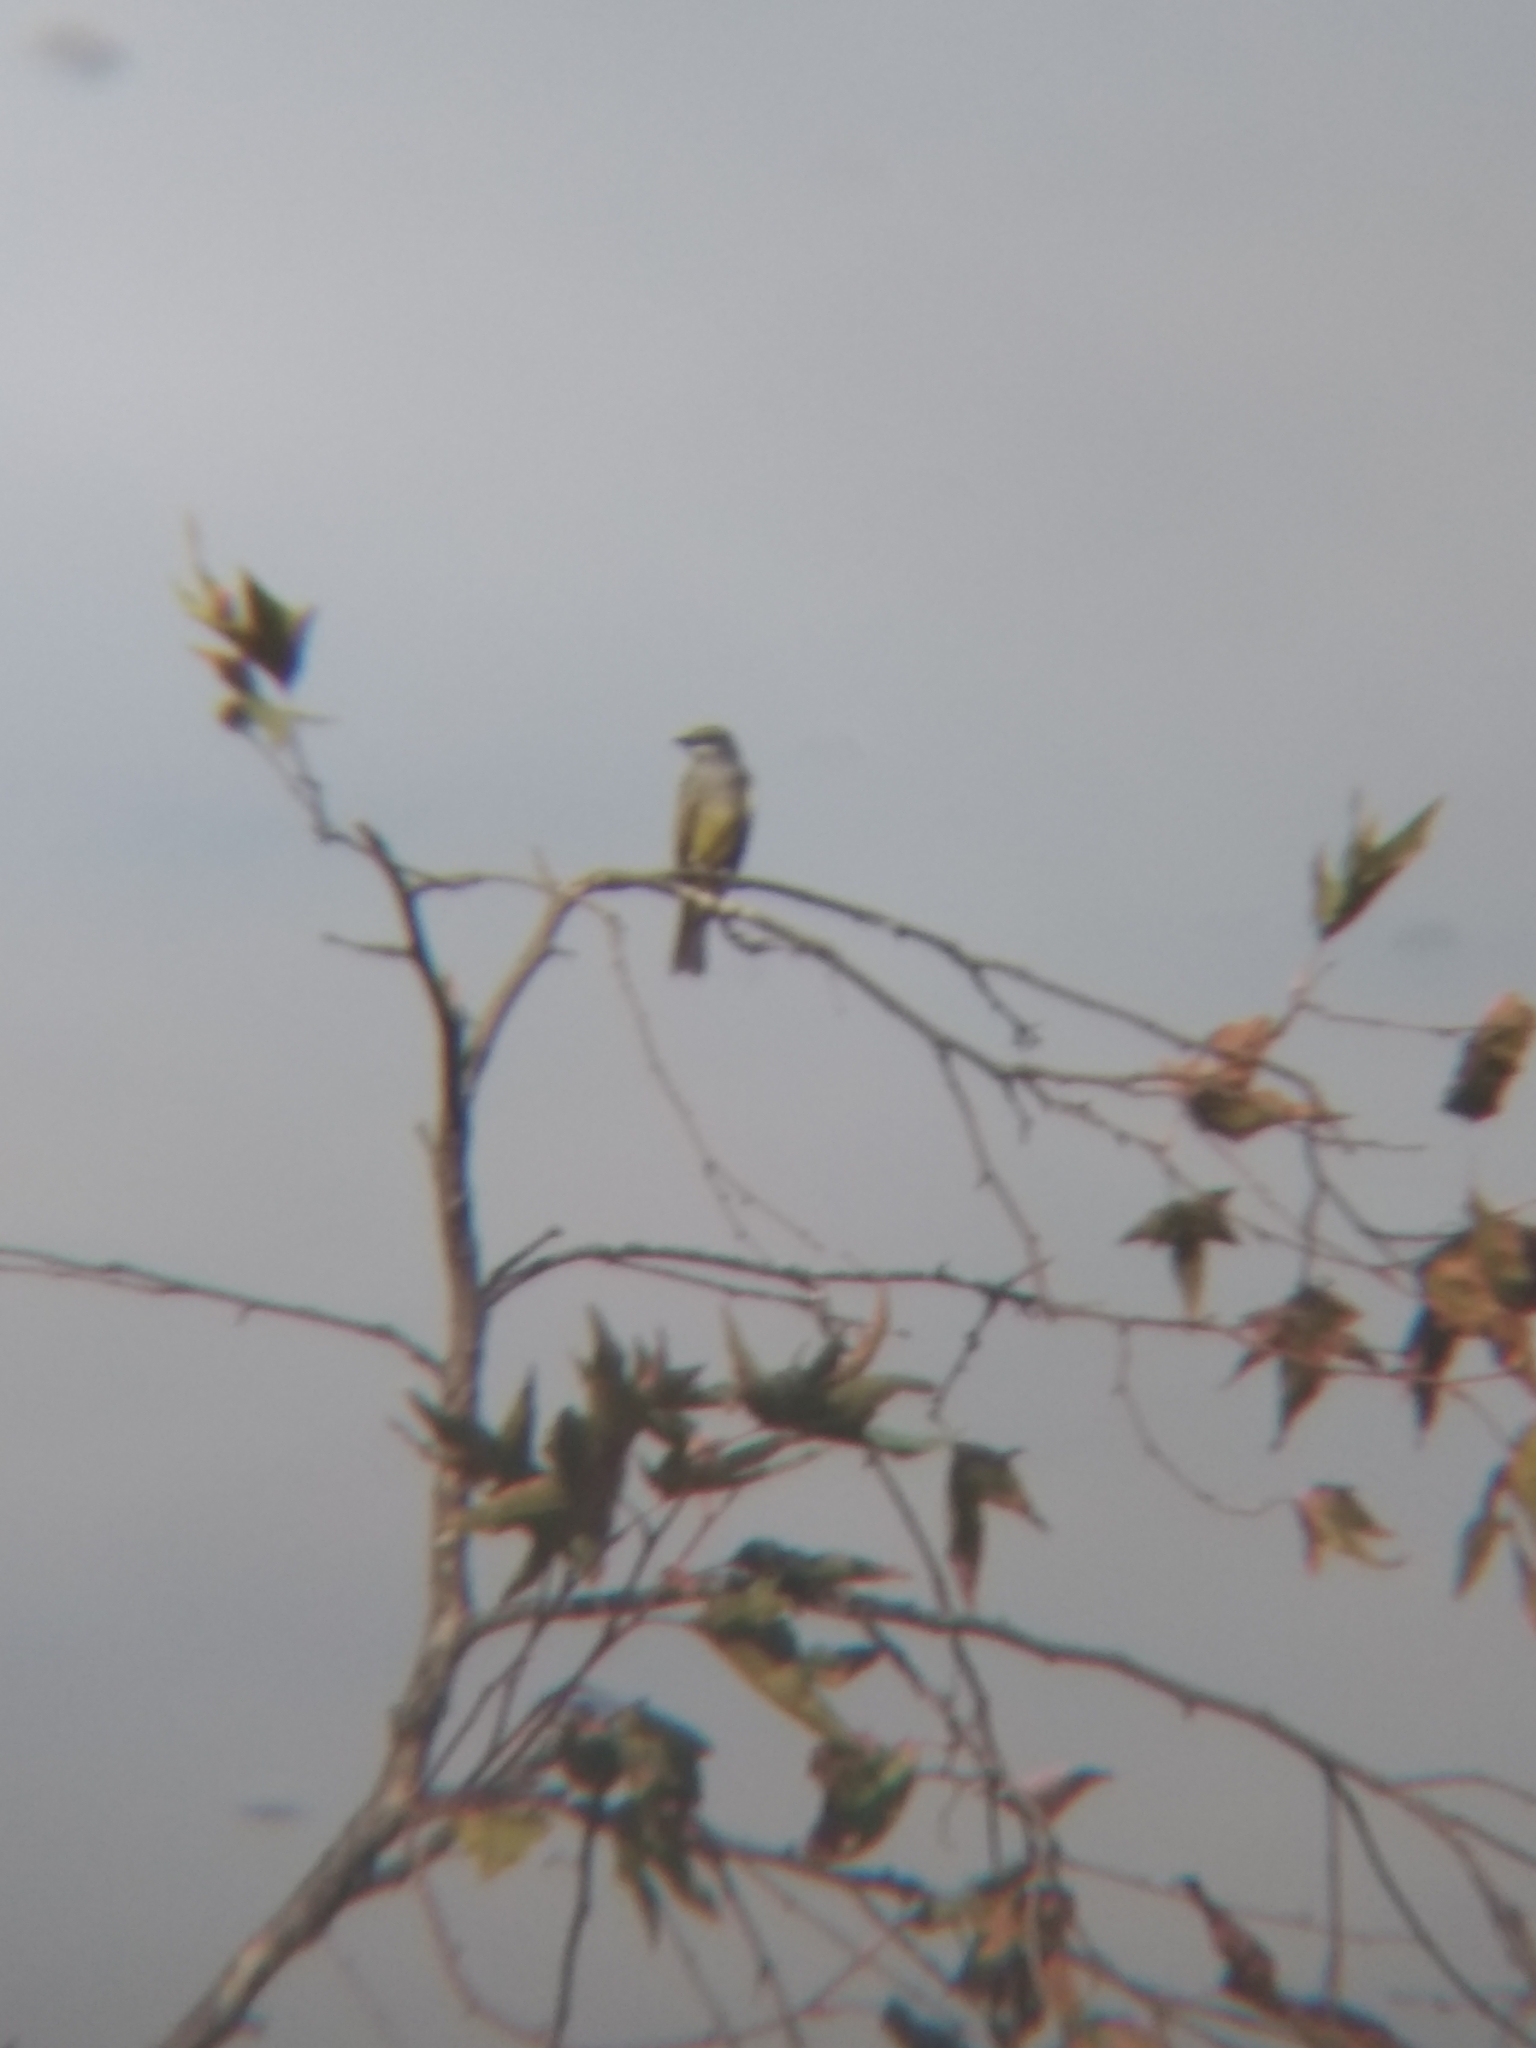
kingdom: Animalia
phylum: Chordata
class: Aves
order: Passeriformes
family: Tyrannidae
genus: Tyrannus
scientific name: Tyrannus vociferans
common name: Cassin's kingbird
